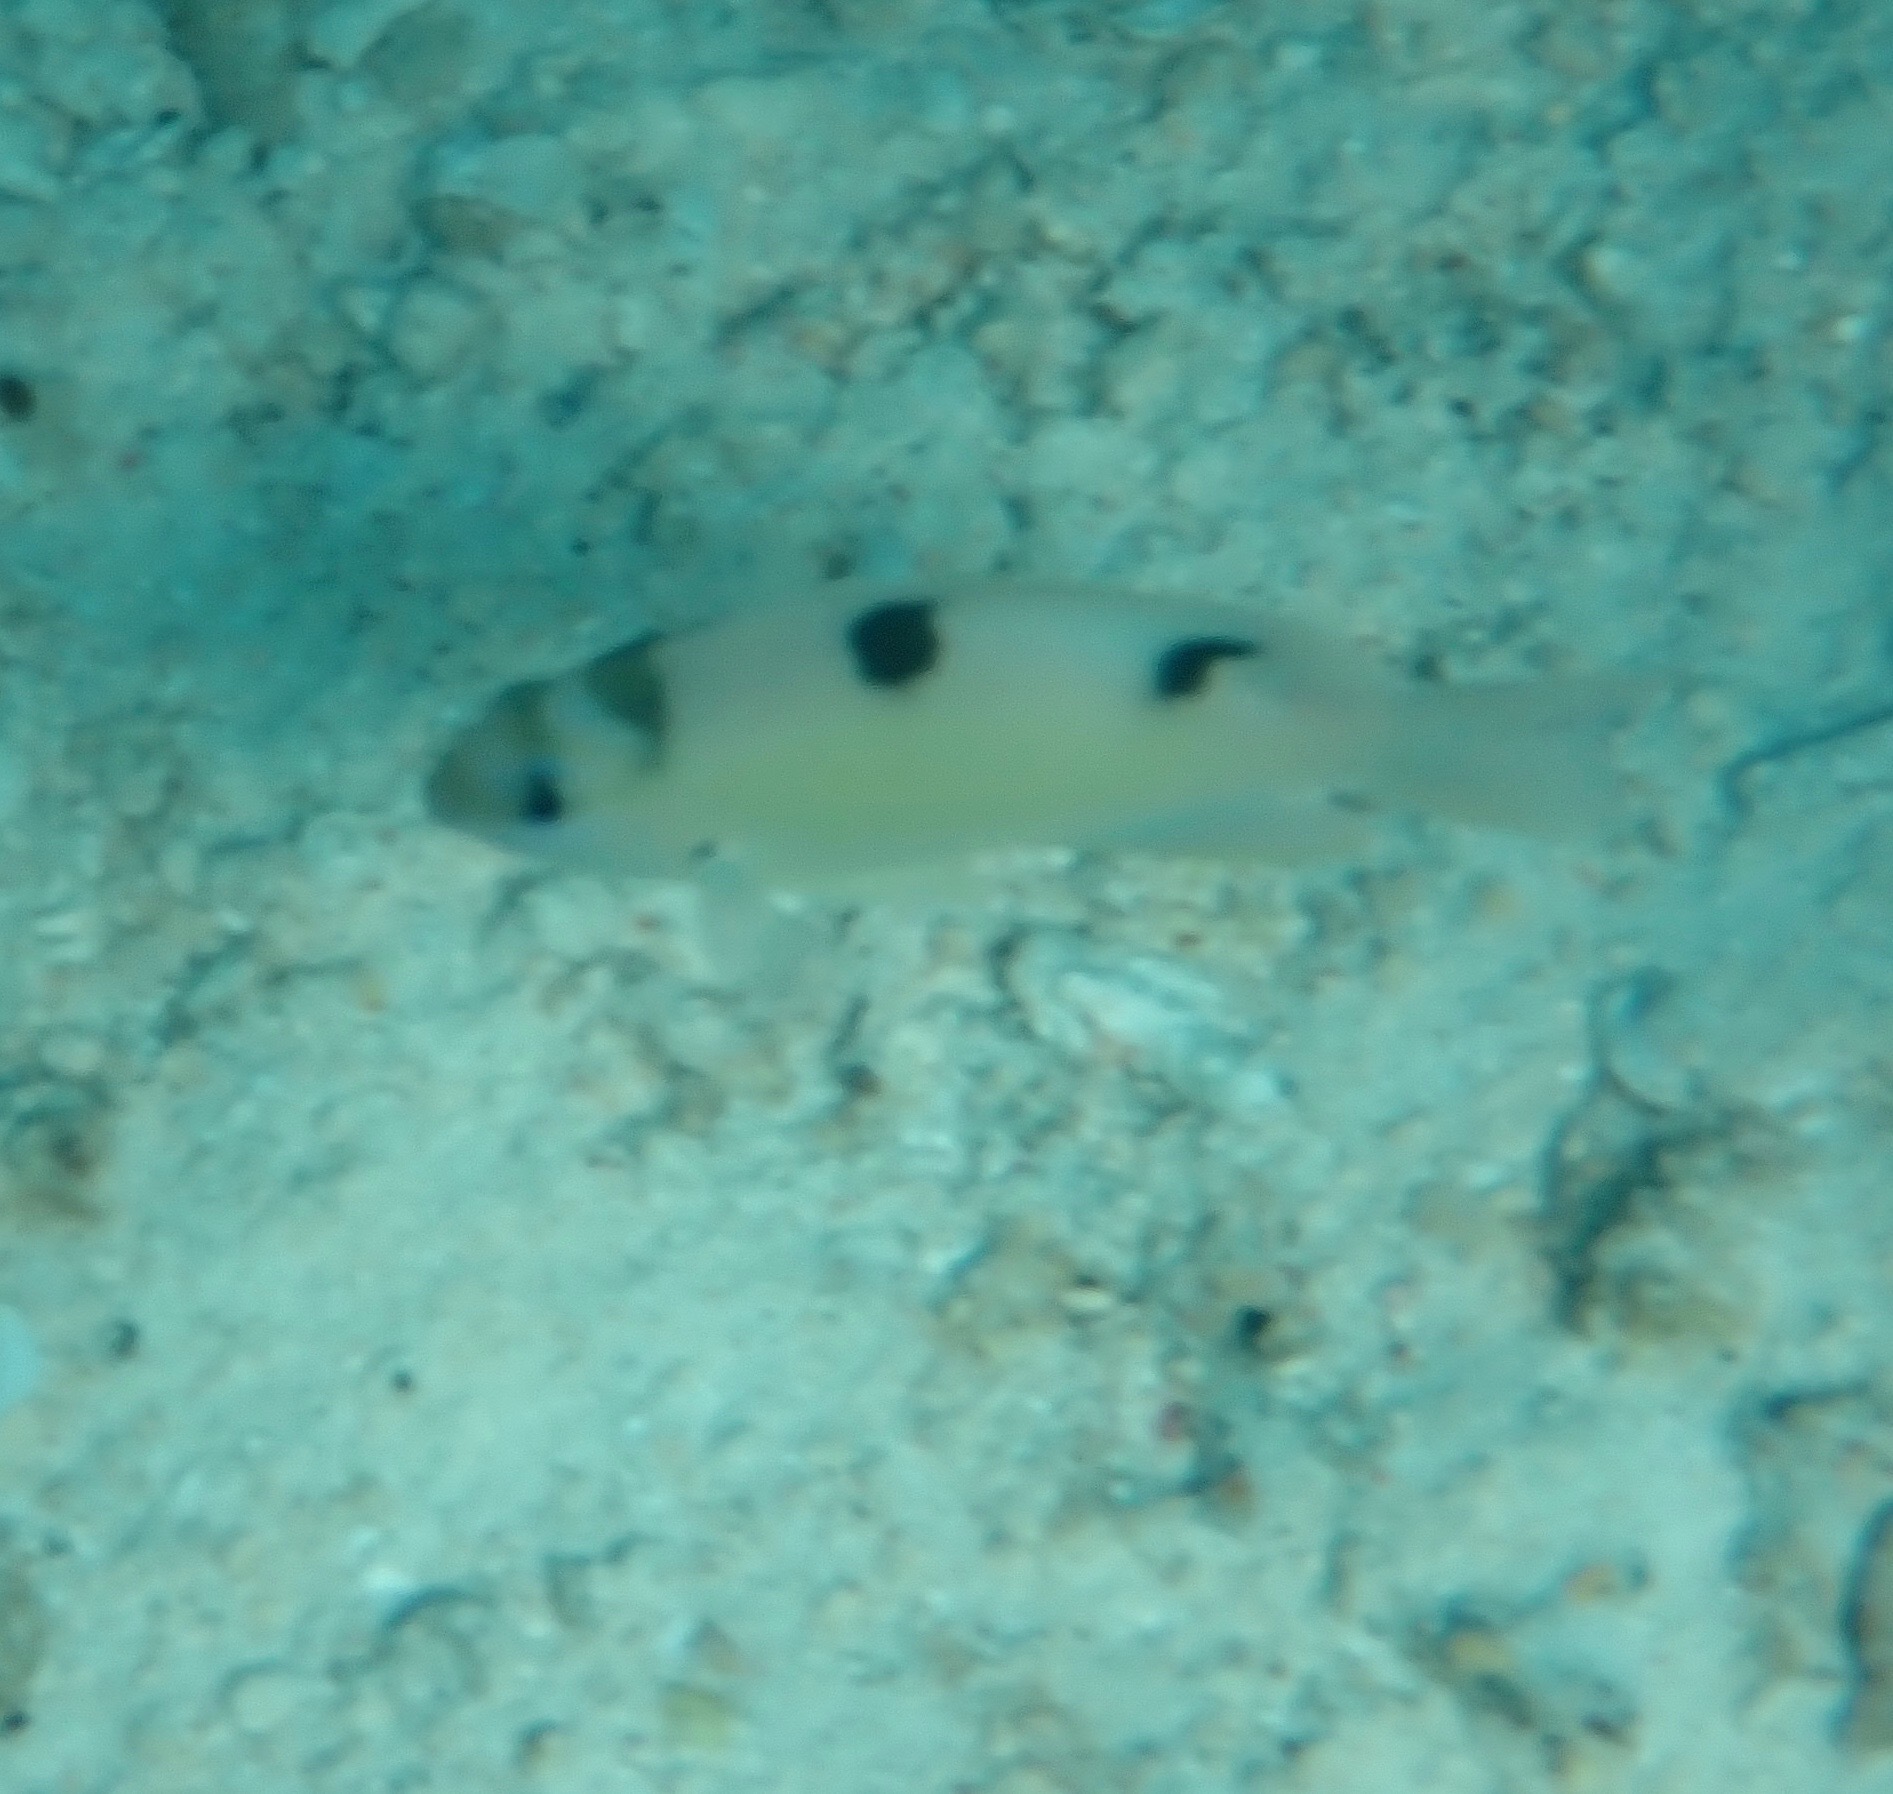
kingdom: Animalia
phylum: Chordata
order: Perciformes
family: Pomacentridae
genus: Dischistodus
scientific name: Dischistodus perspicillatus
